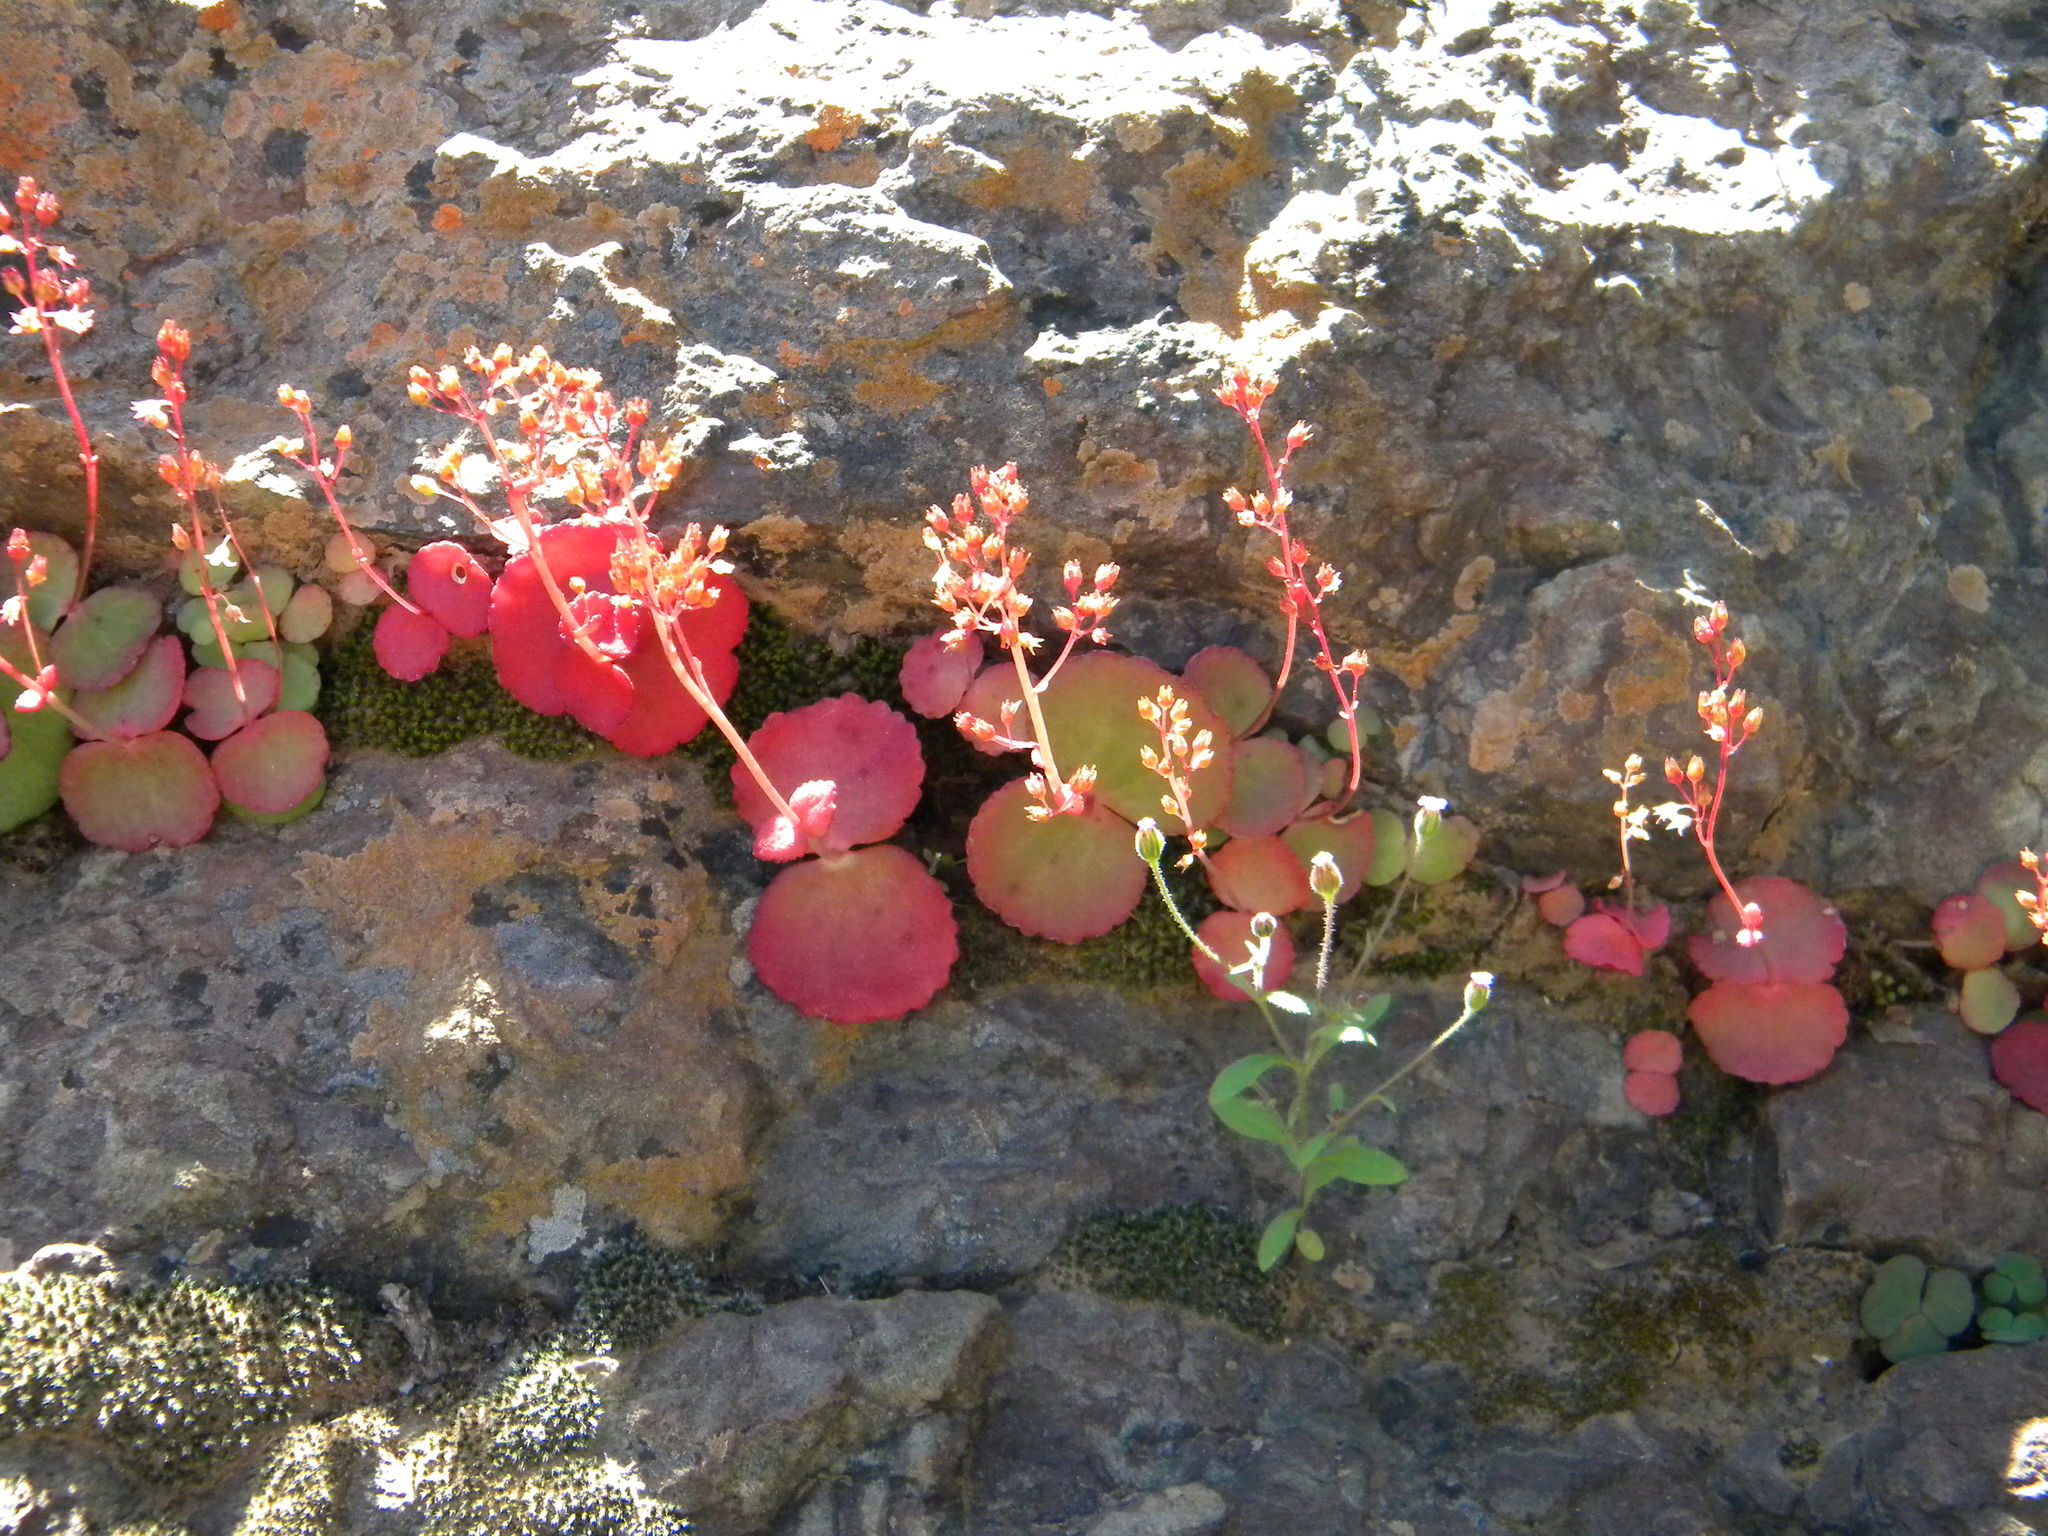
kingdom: Plantae
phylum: Tracheophyta
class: Magnoliopsida
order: Saxifragales
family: Crassulaceae
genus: Crassula
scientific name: Crassula umbella
